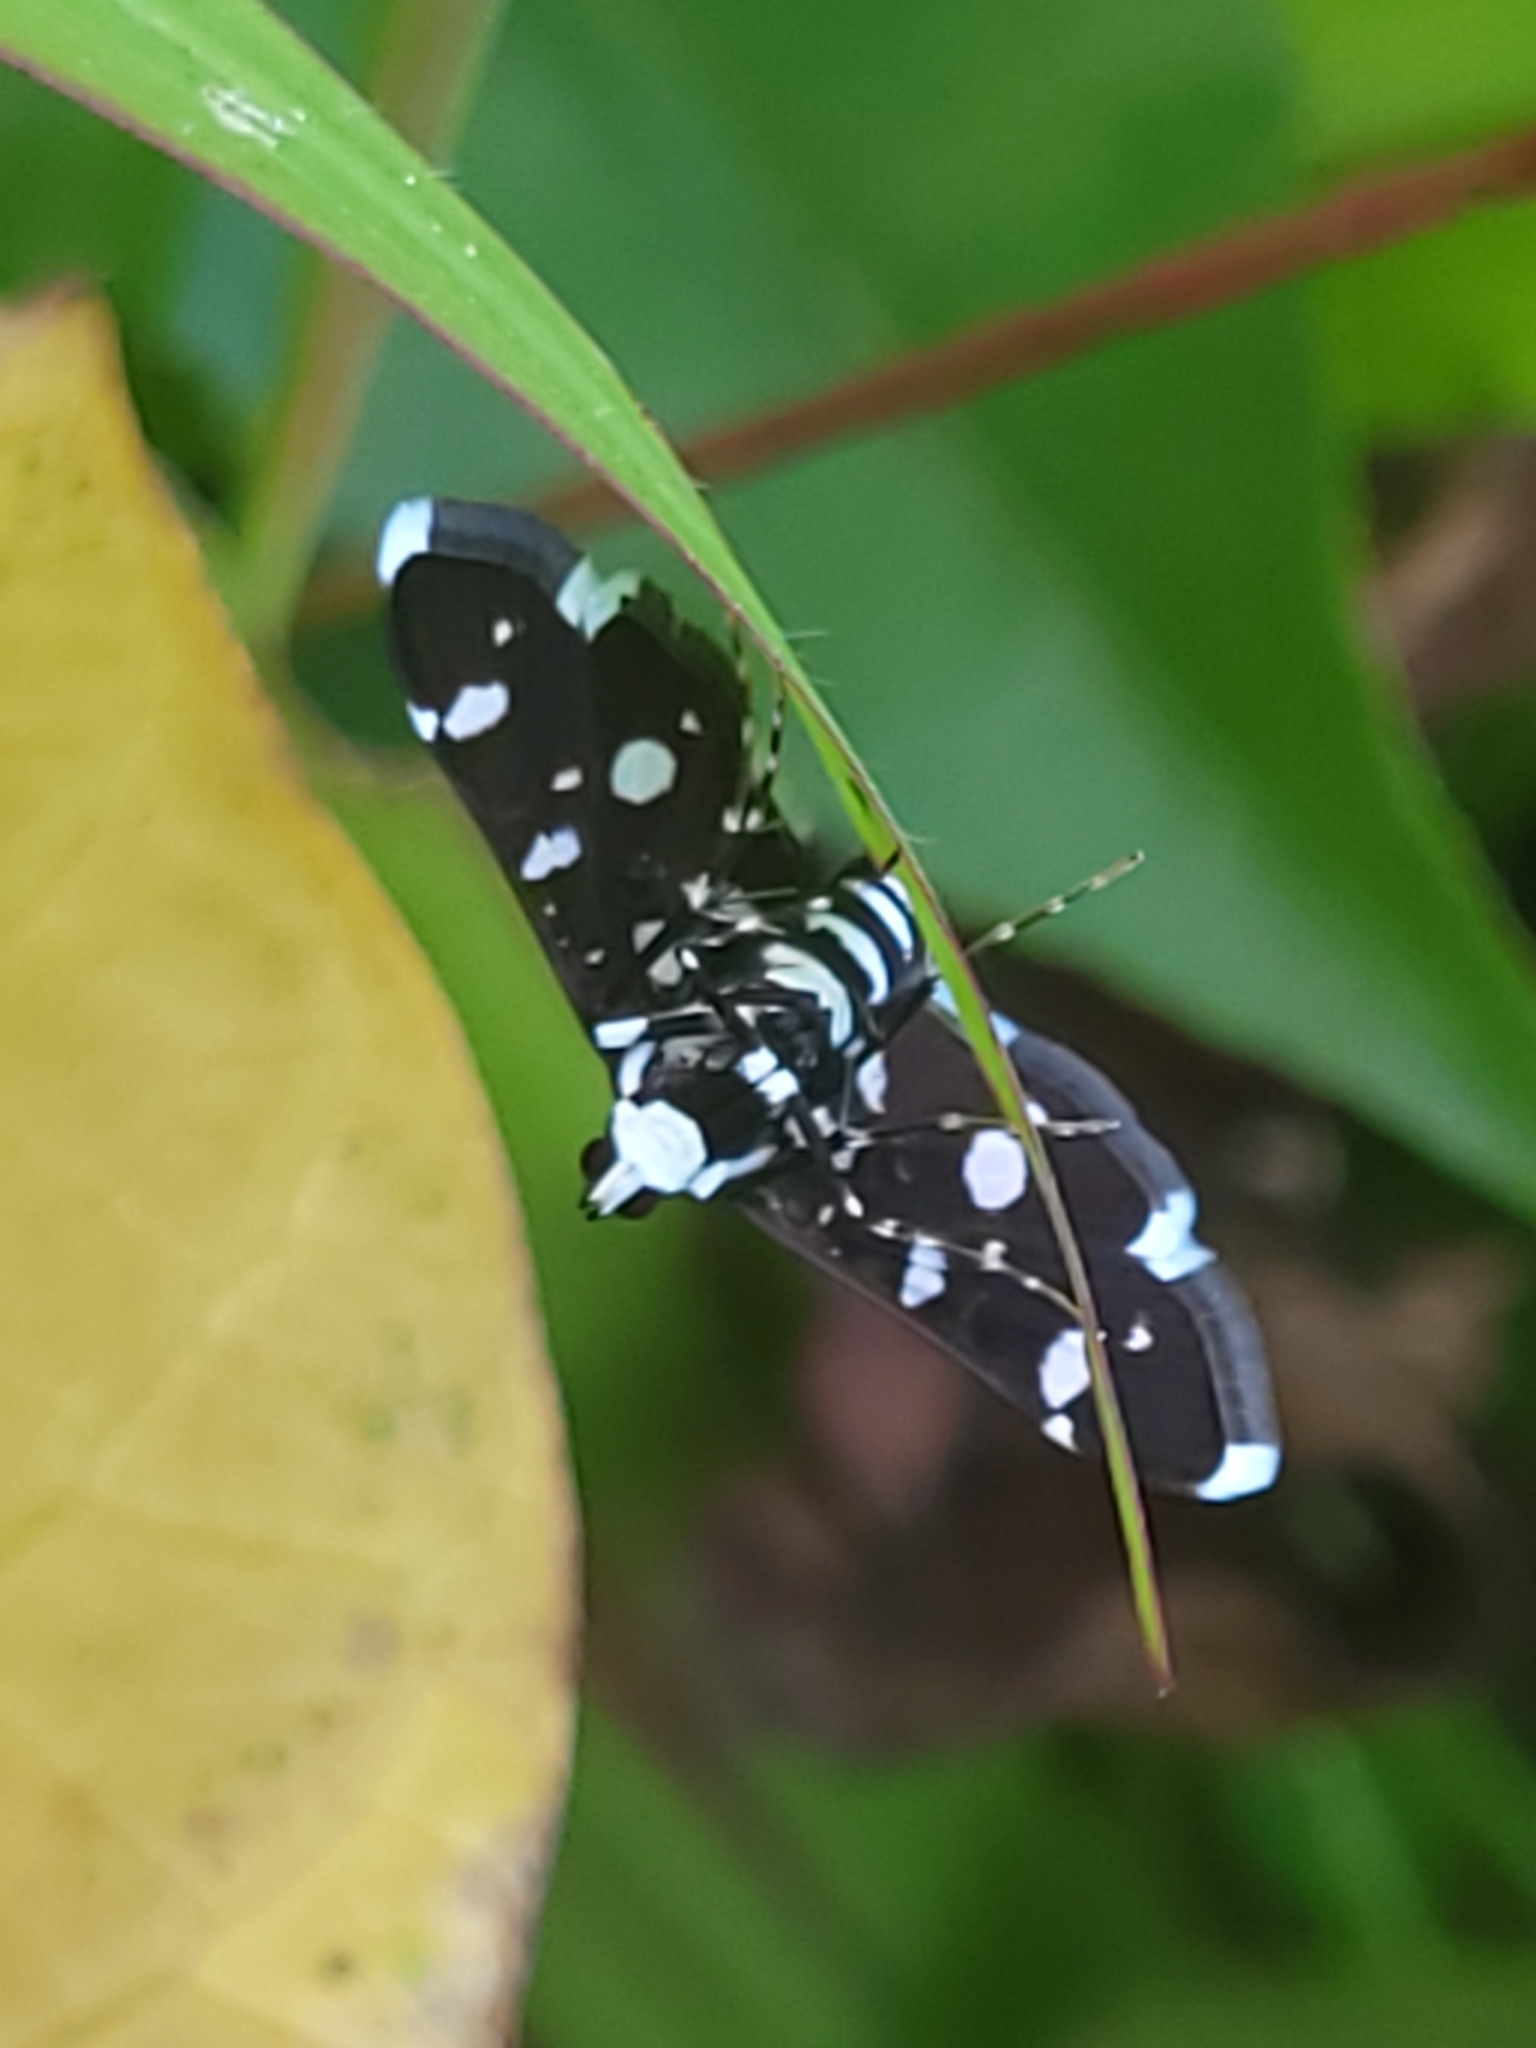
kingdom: Animalia
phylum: Arthropoda
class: Insecta
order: Lepidoptera
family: Crambidae
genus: Bocchoris
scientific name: Bocchoris inspersalis
